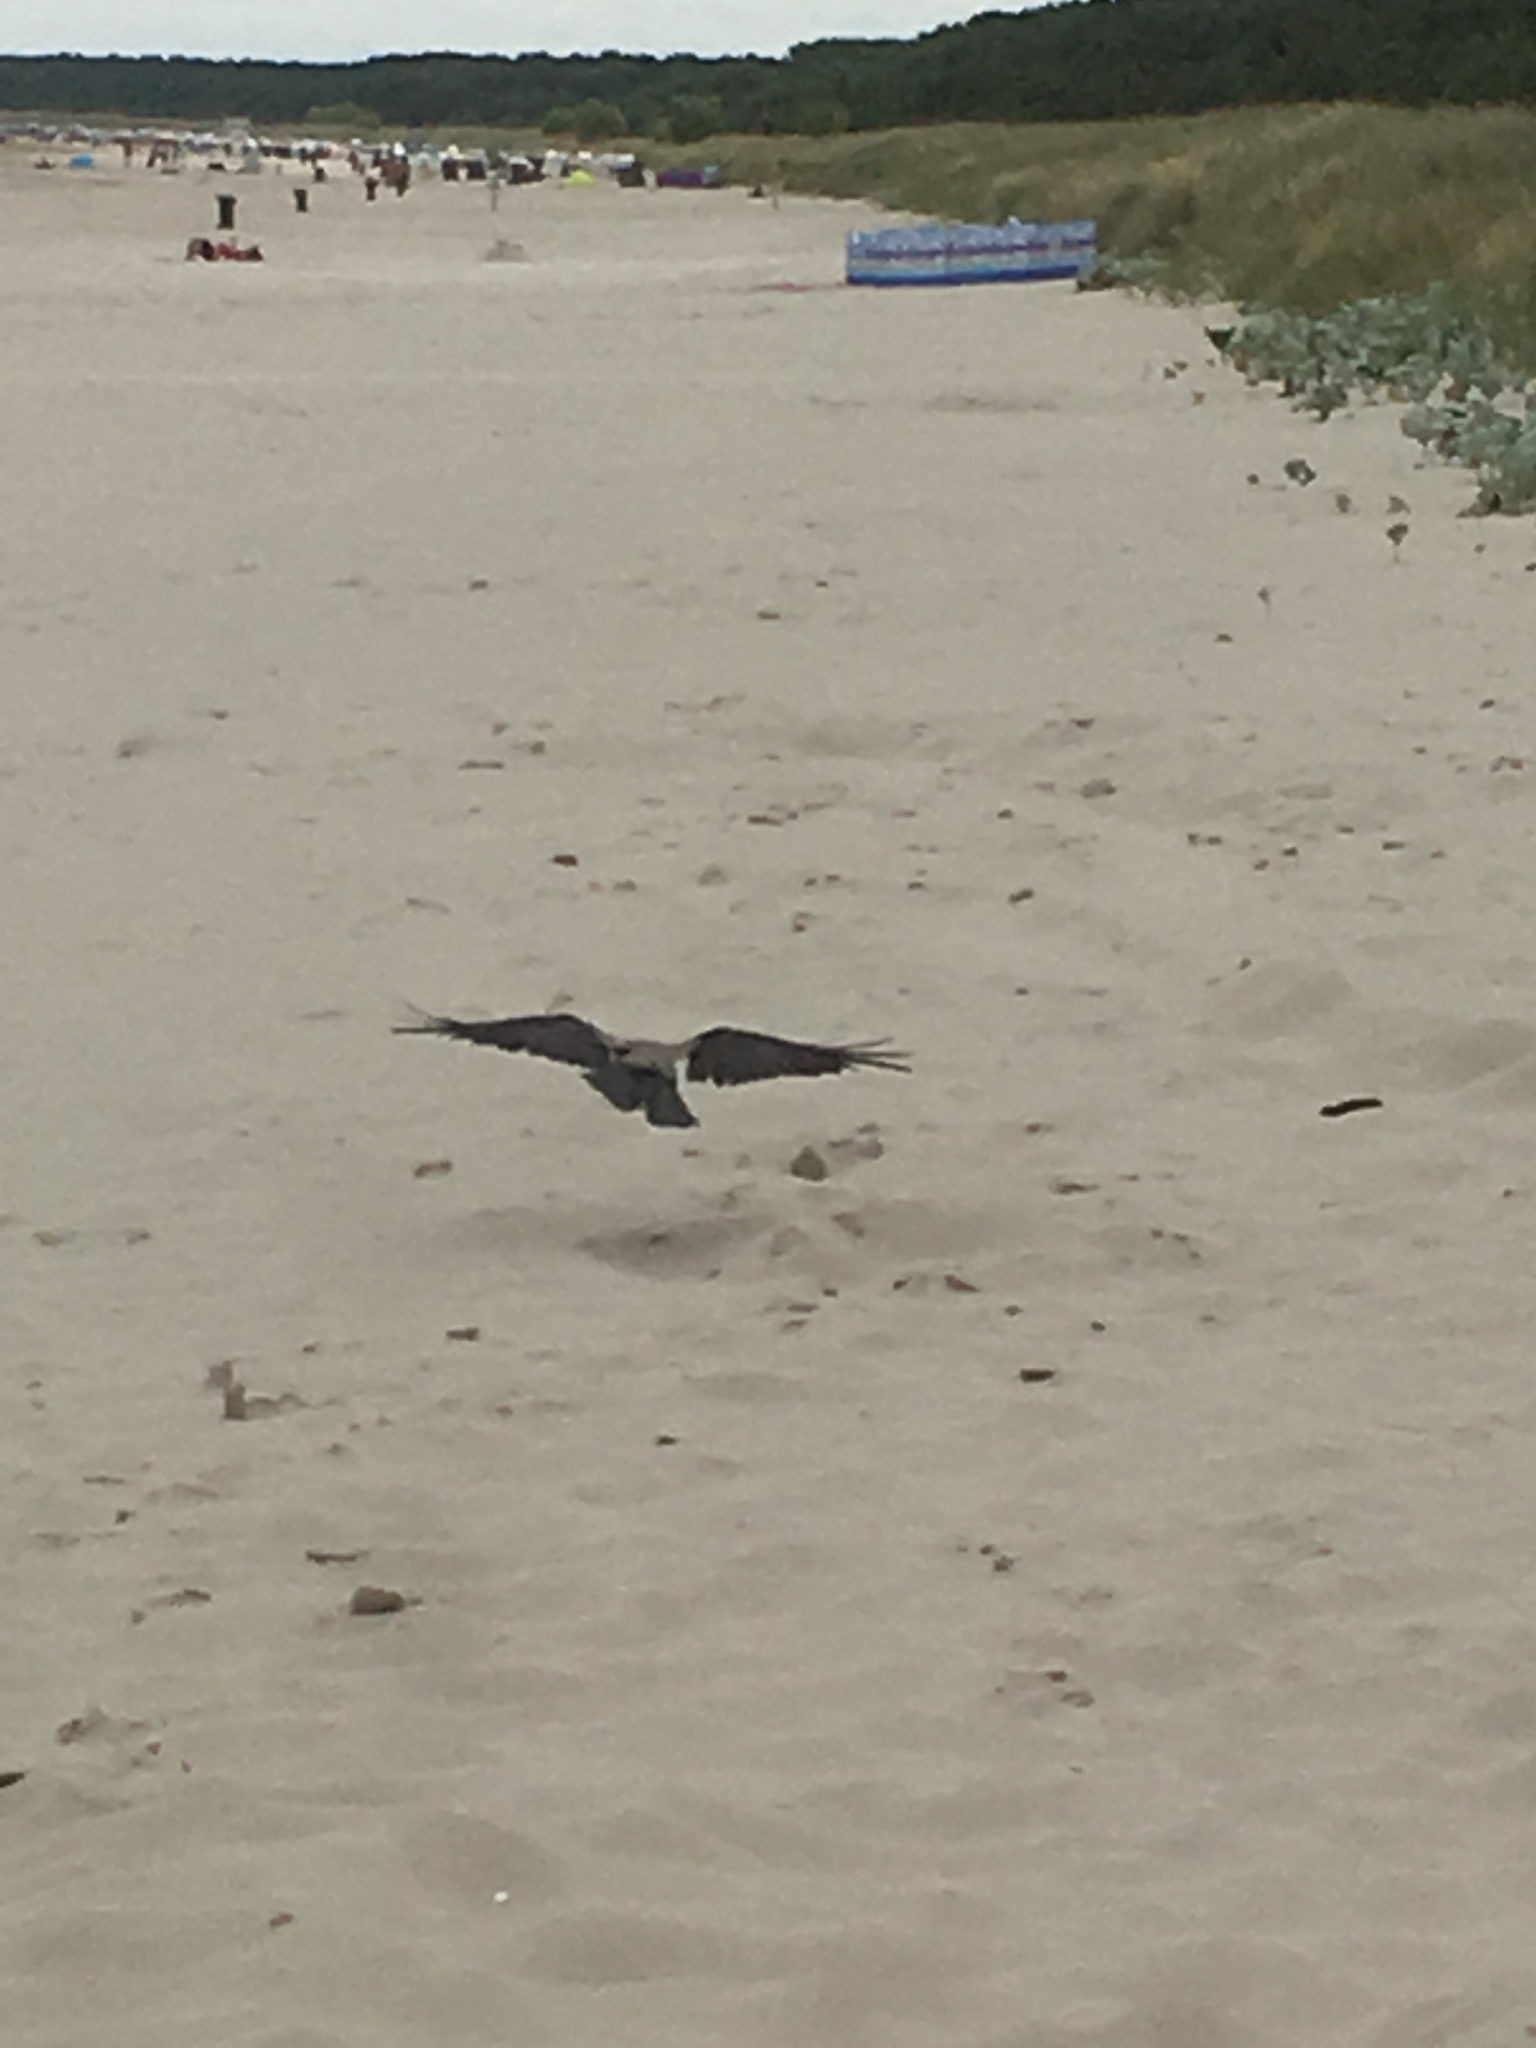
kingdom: Animalia
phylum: Chordata
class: Aves
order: Passeriformes
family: Corvidae
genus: Corvus
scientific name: Corvus cornix
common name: Hooded crow
